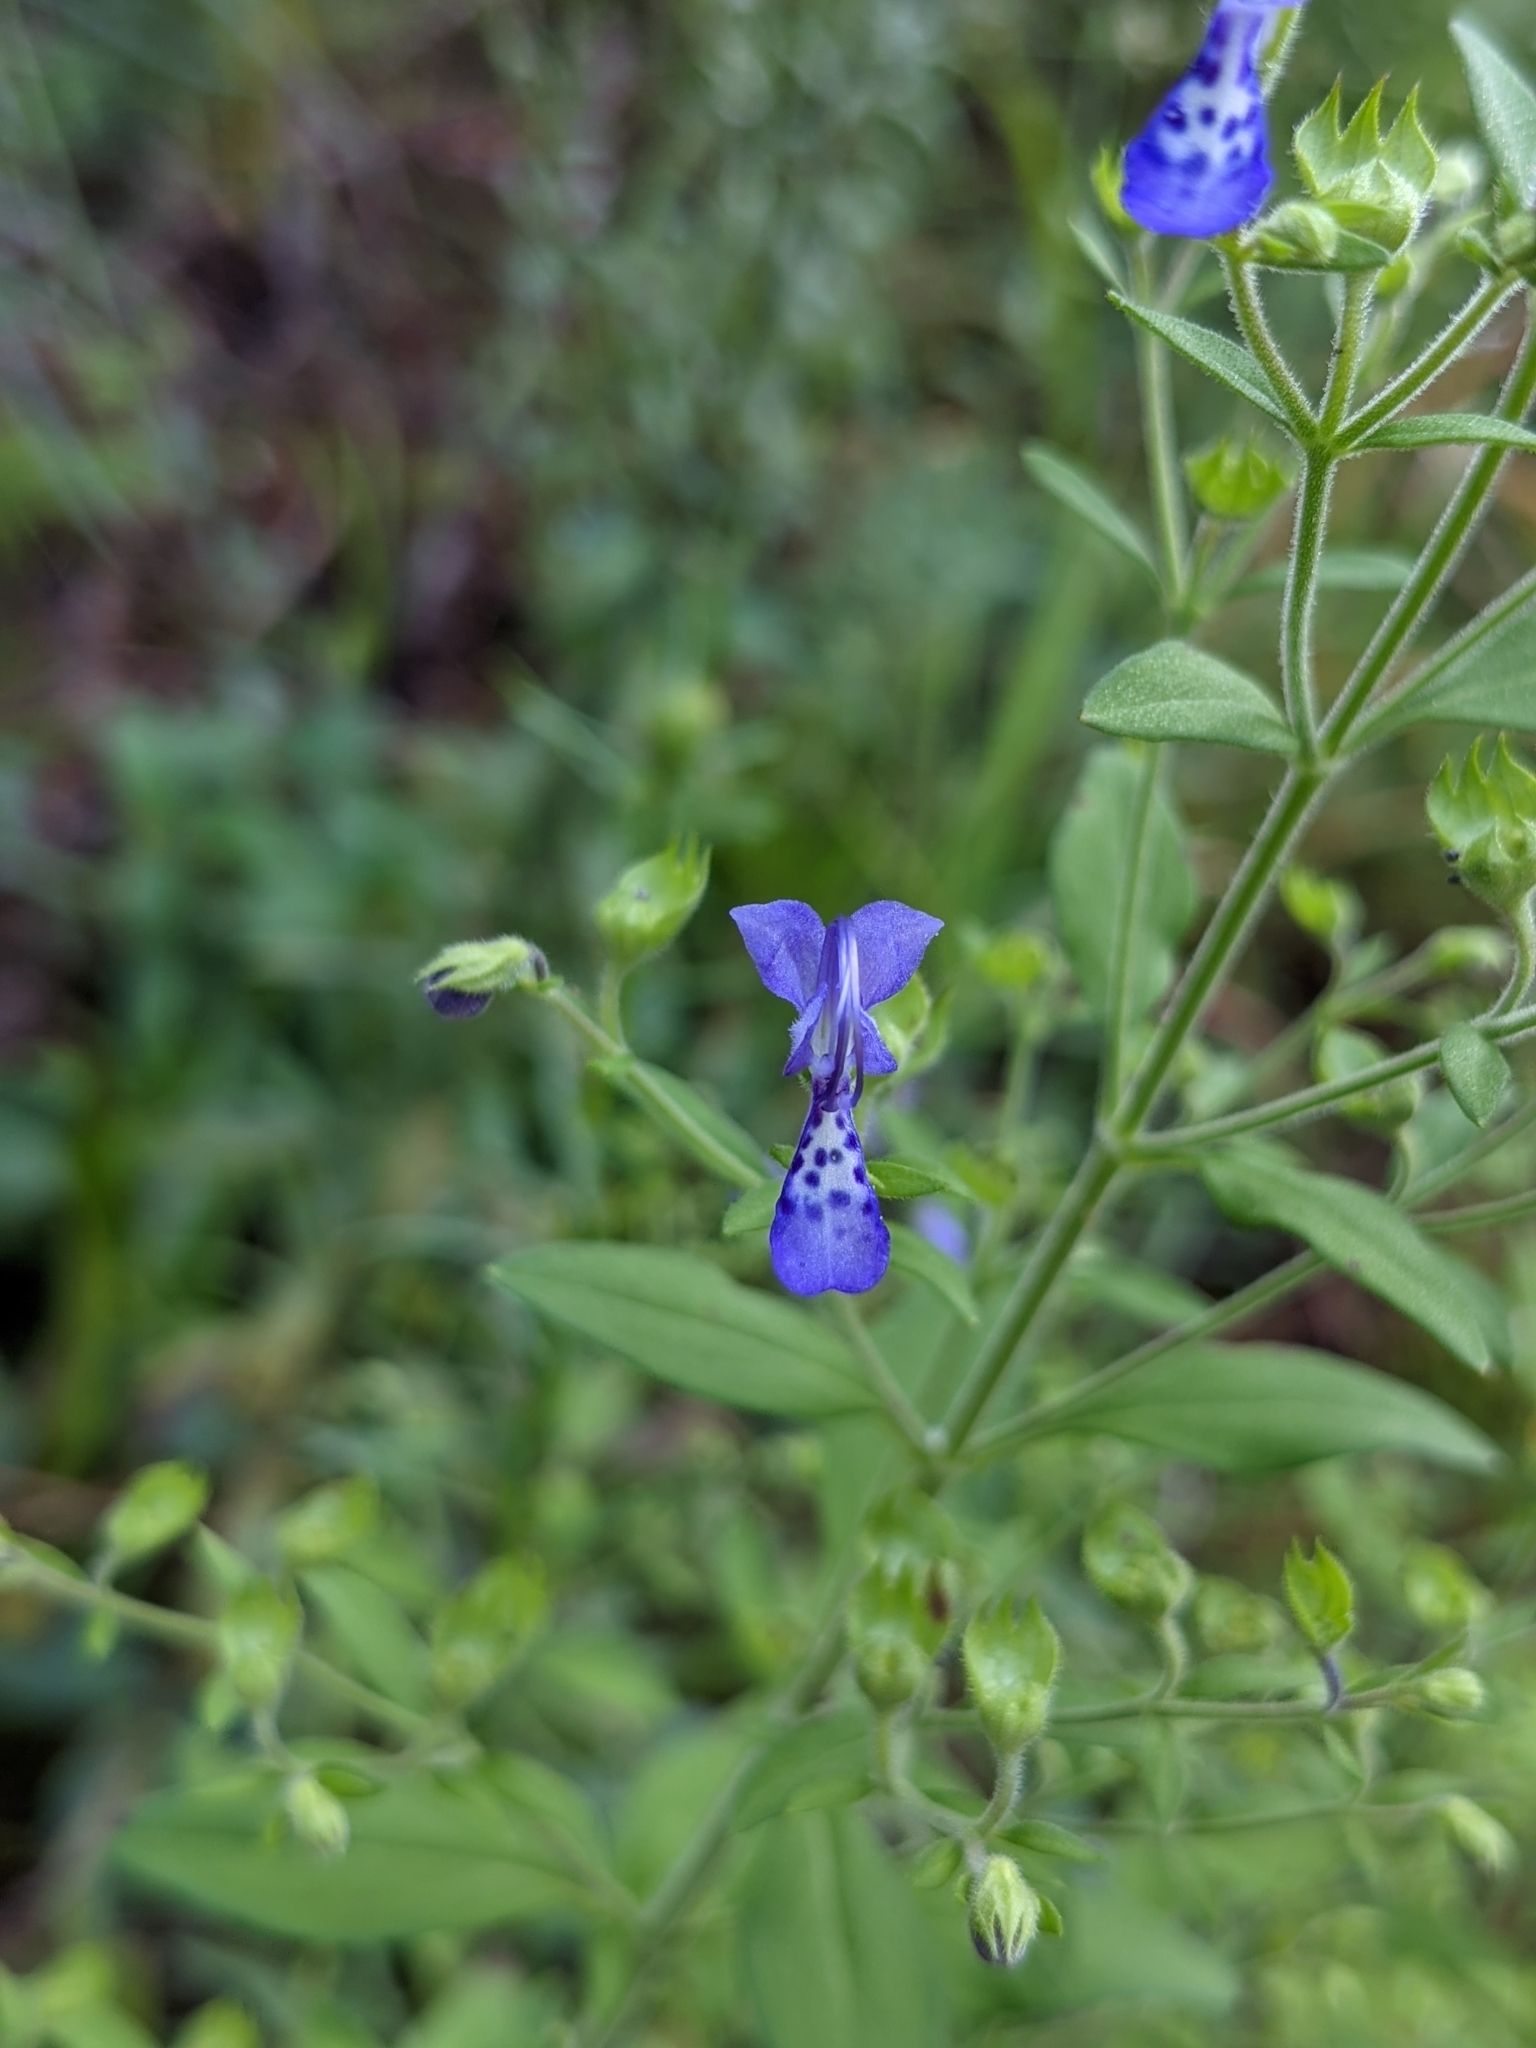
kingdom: Plantae
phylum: Tracheophyta
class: Magnoliopsida
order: Lamiales
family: Lamiaceae
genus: Trichostema
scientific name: Trichostema dichotomum
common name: Bastard pennyroyal
